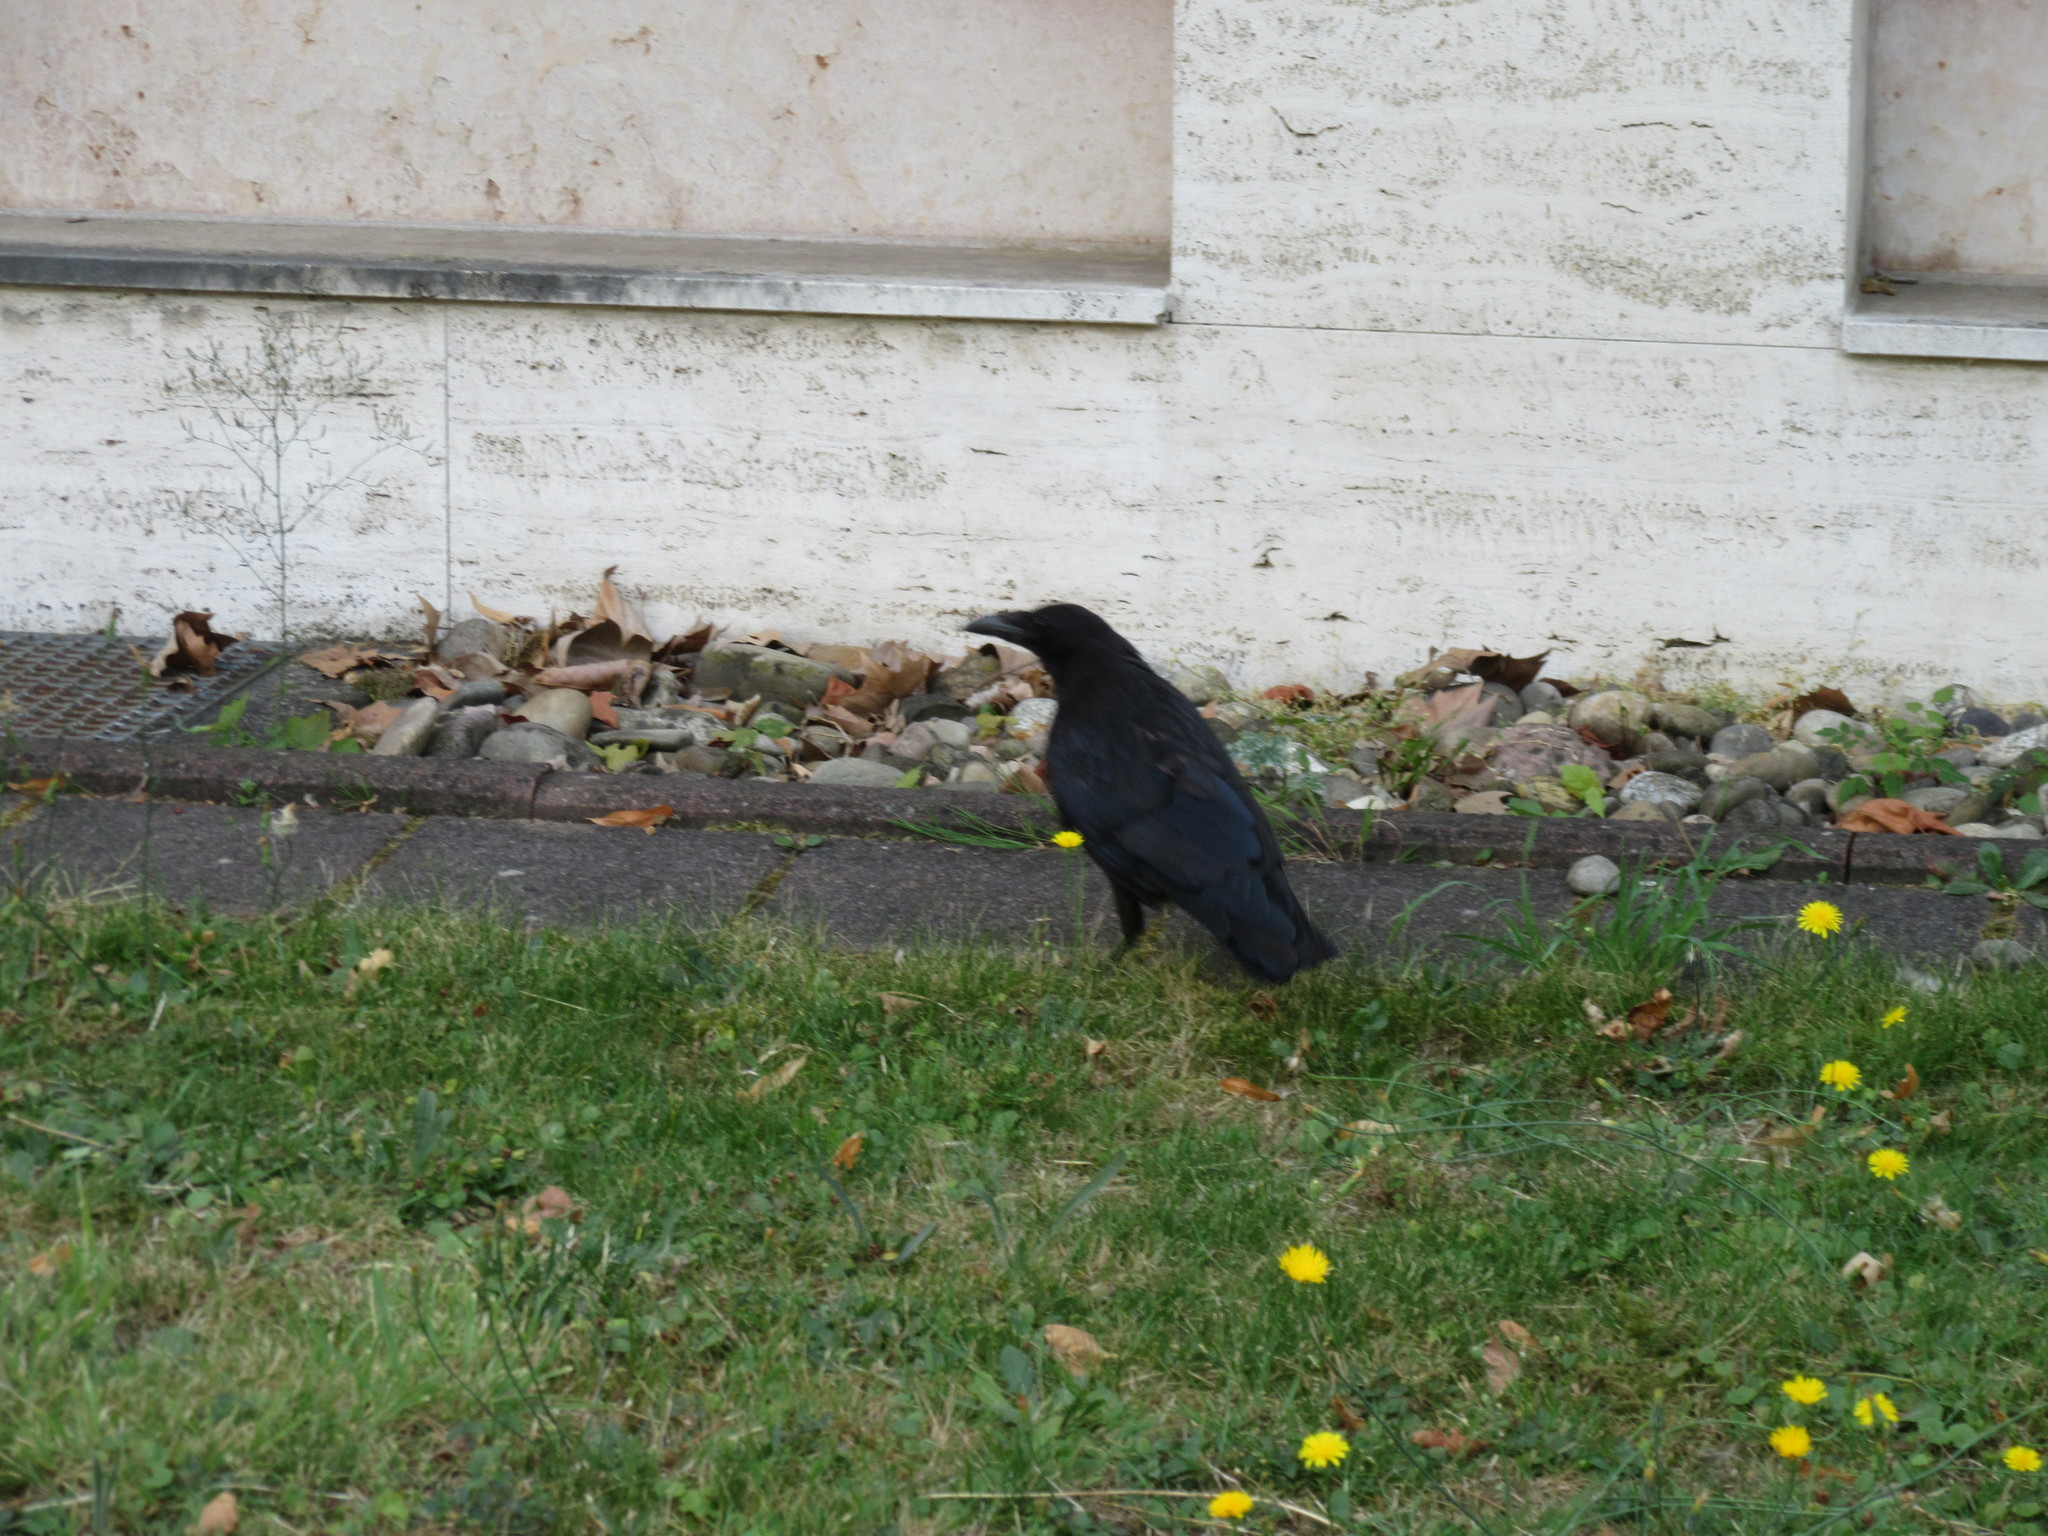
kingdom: Animalia
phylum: Chordata
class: Aves
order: Passeriformes
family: Corvidae
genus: Corvus
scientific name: Corvus corax
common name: Common raven
